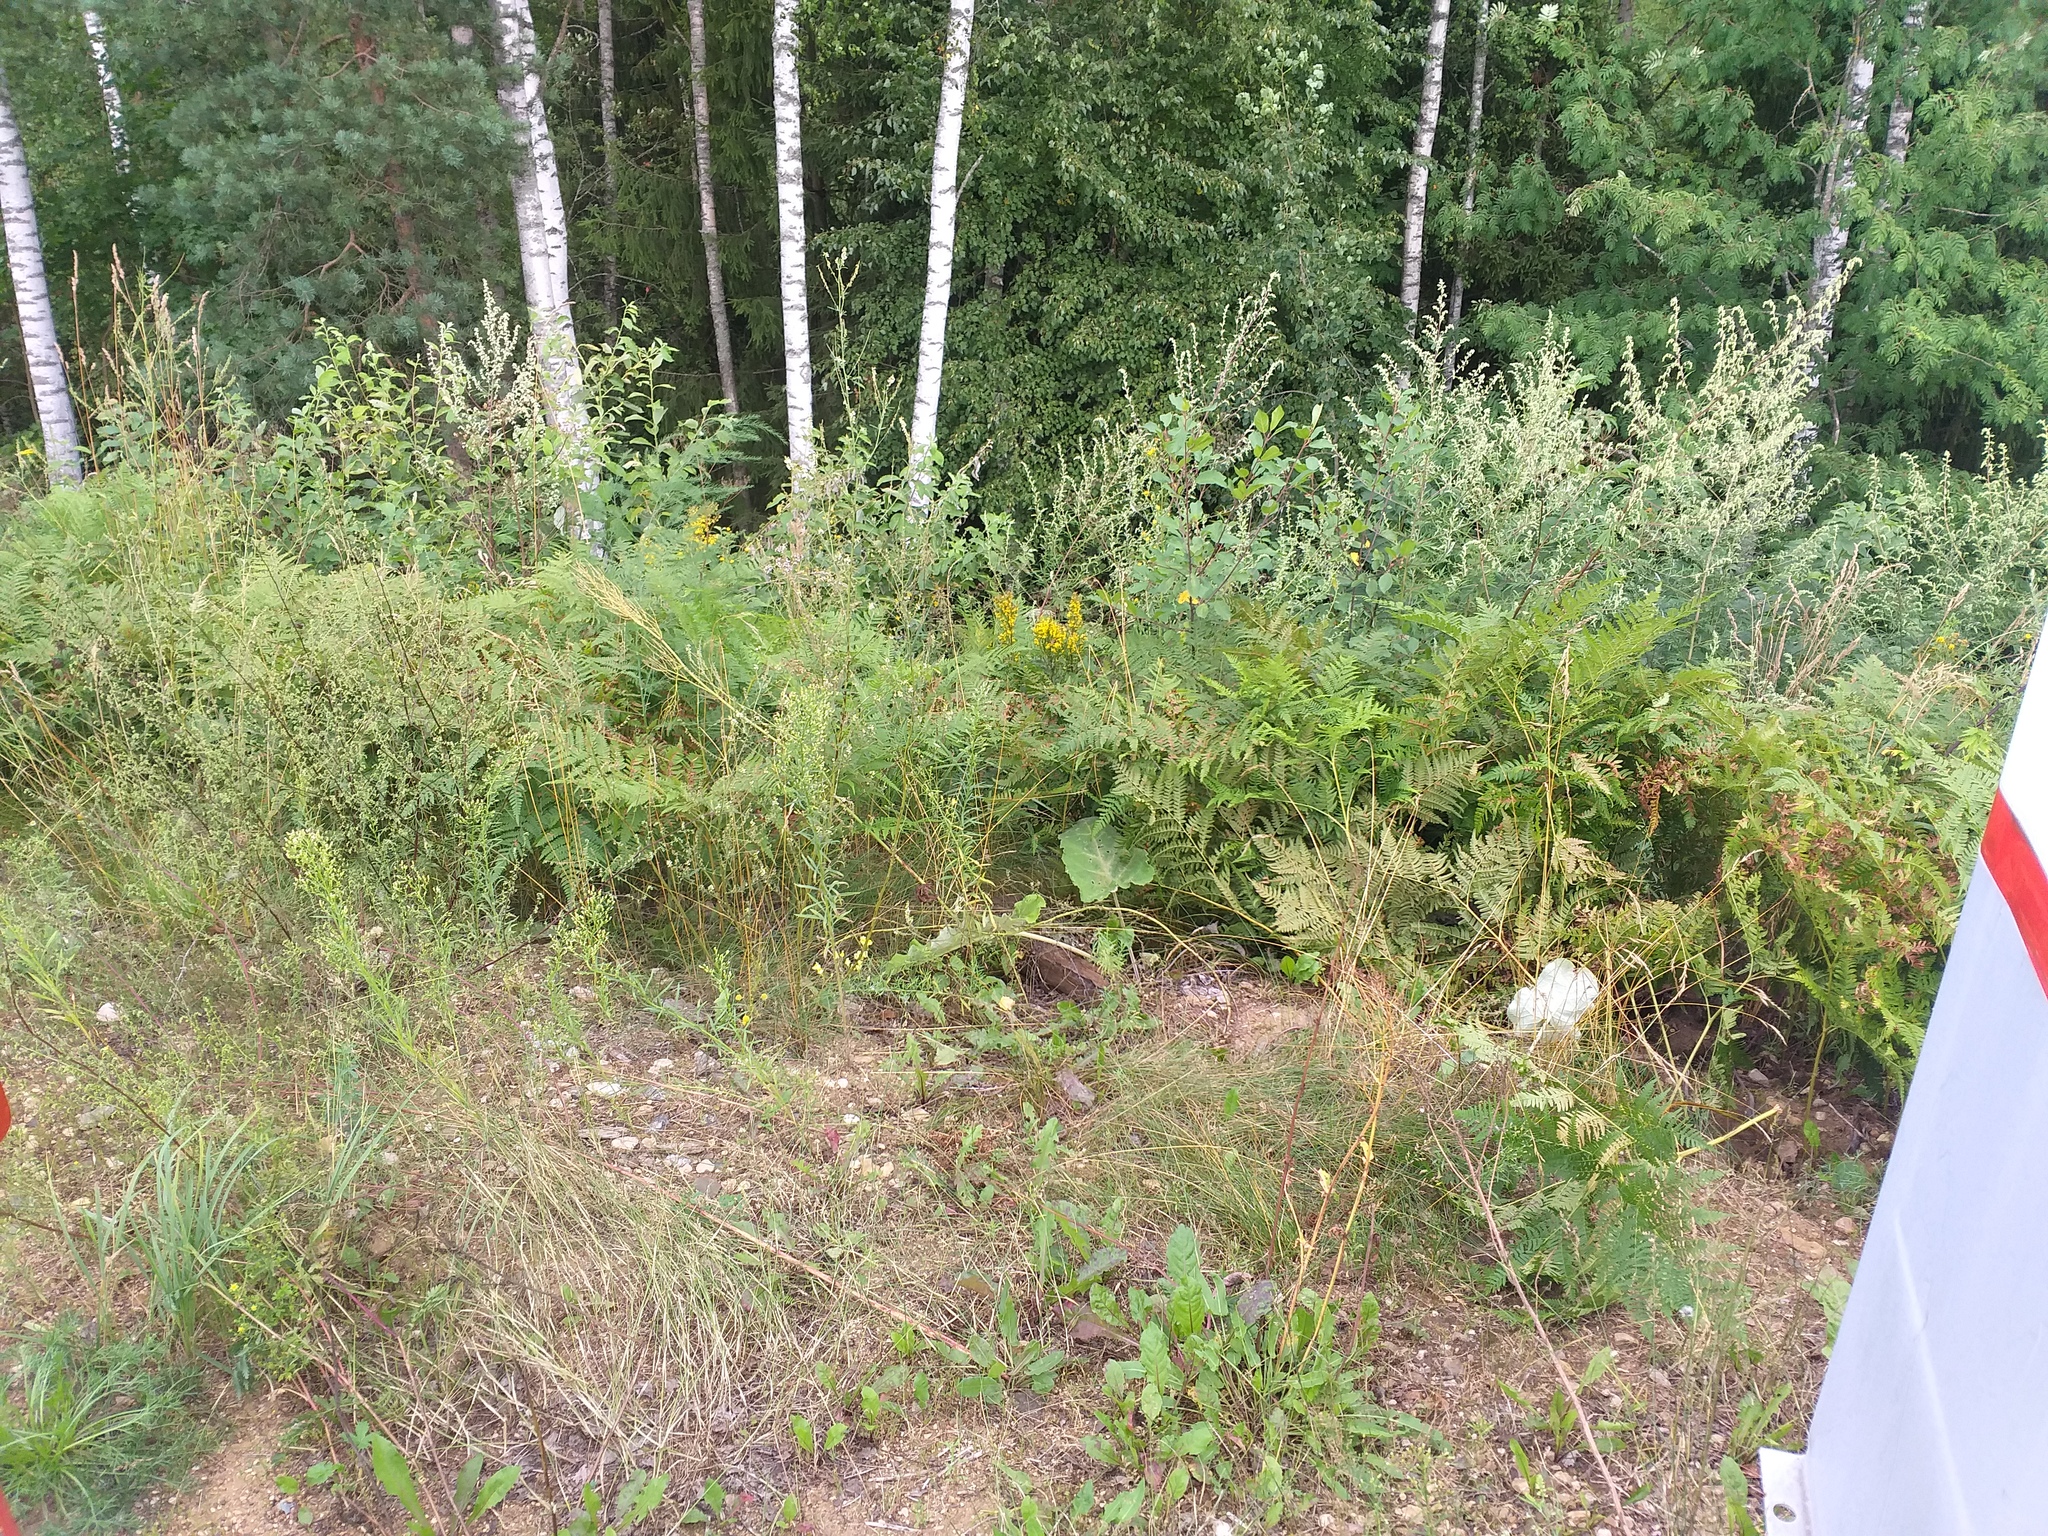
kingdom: Plantae
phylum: Tracheophyta
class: Polypodiopsida
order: Polypodiales
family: Dennstaedtiaceae
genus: Pteridium
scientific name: Pteridium aquilinum
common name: Bracken
